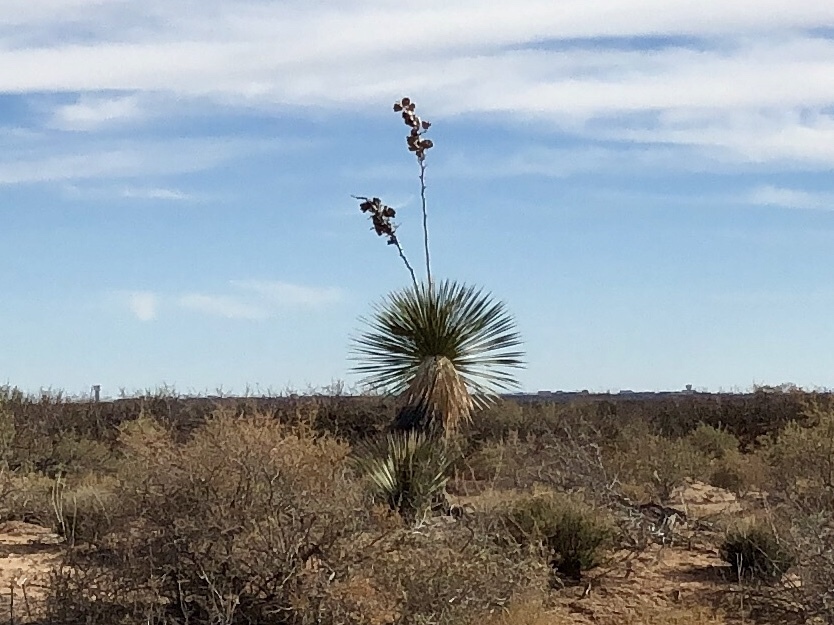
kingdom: Plantae
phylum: Tracheophyta
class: Liliopsida
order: Asparagales
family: Asparagaceae
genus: Yucca
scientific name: Yucca elata
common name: Palmella
